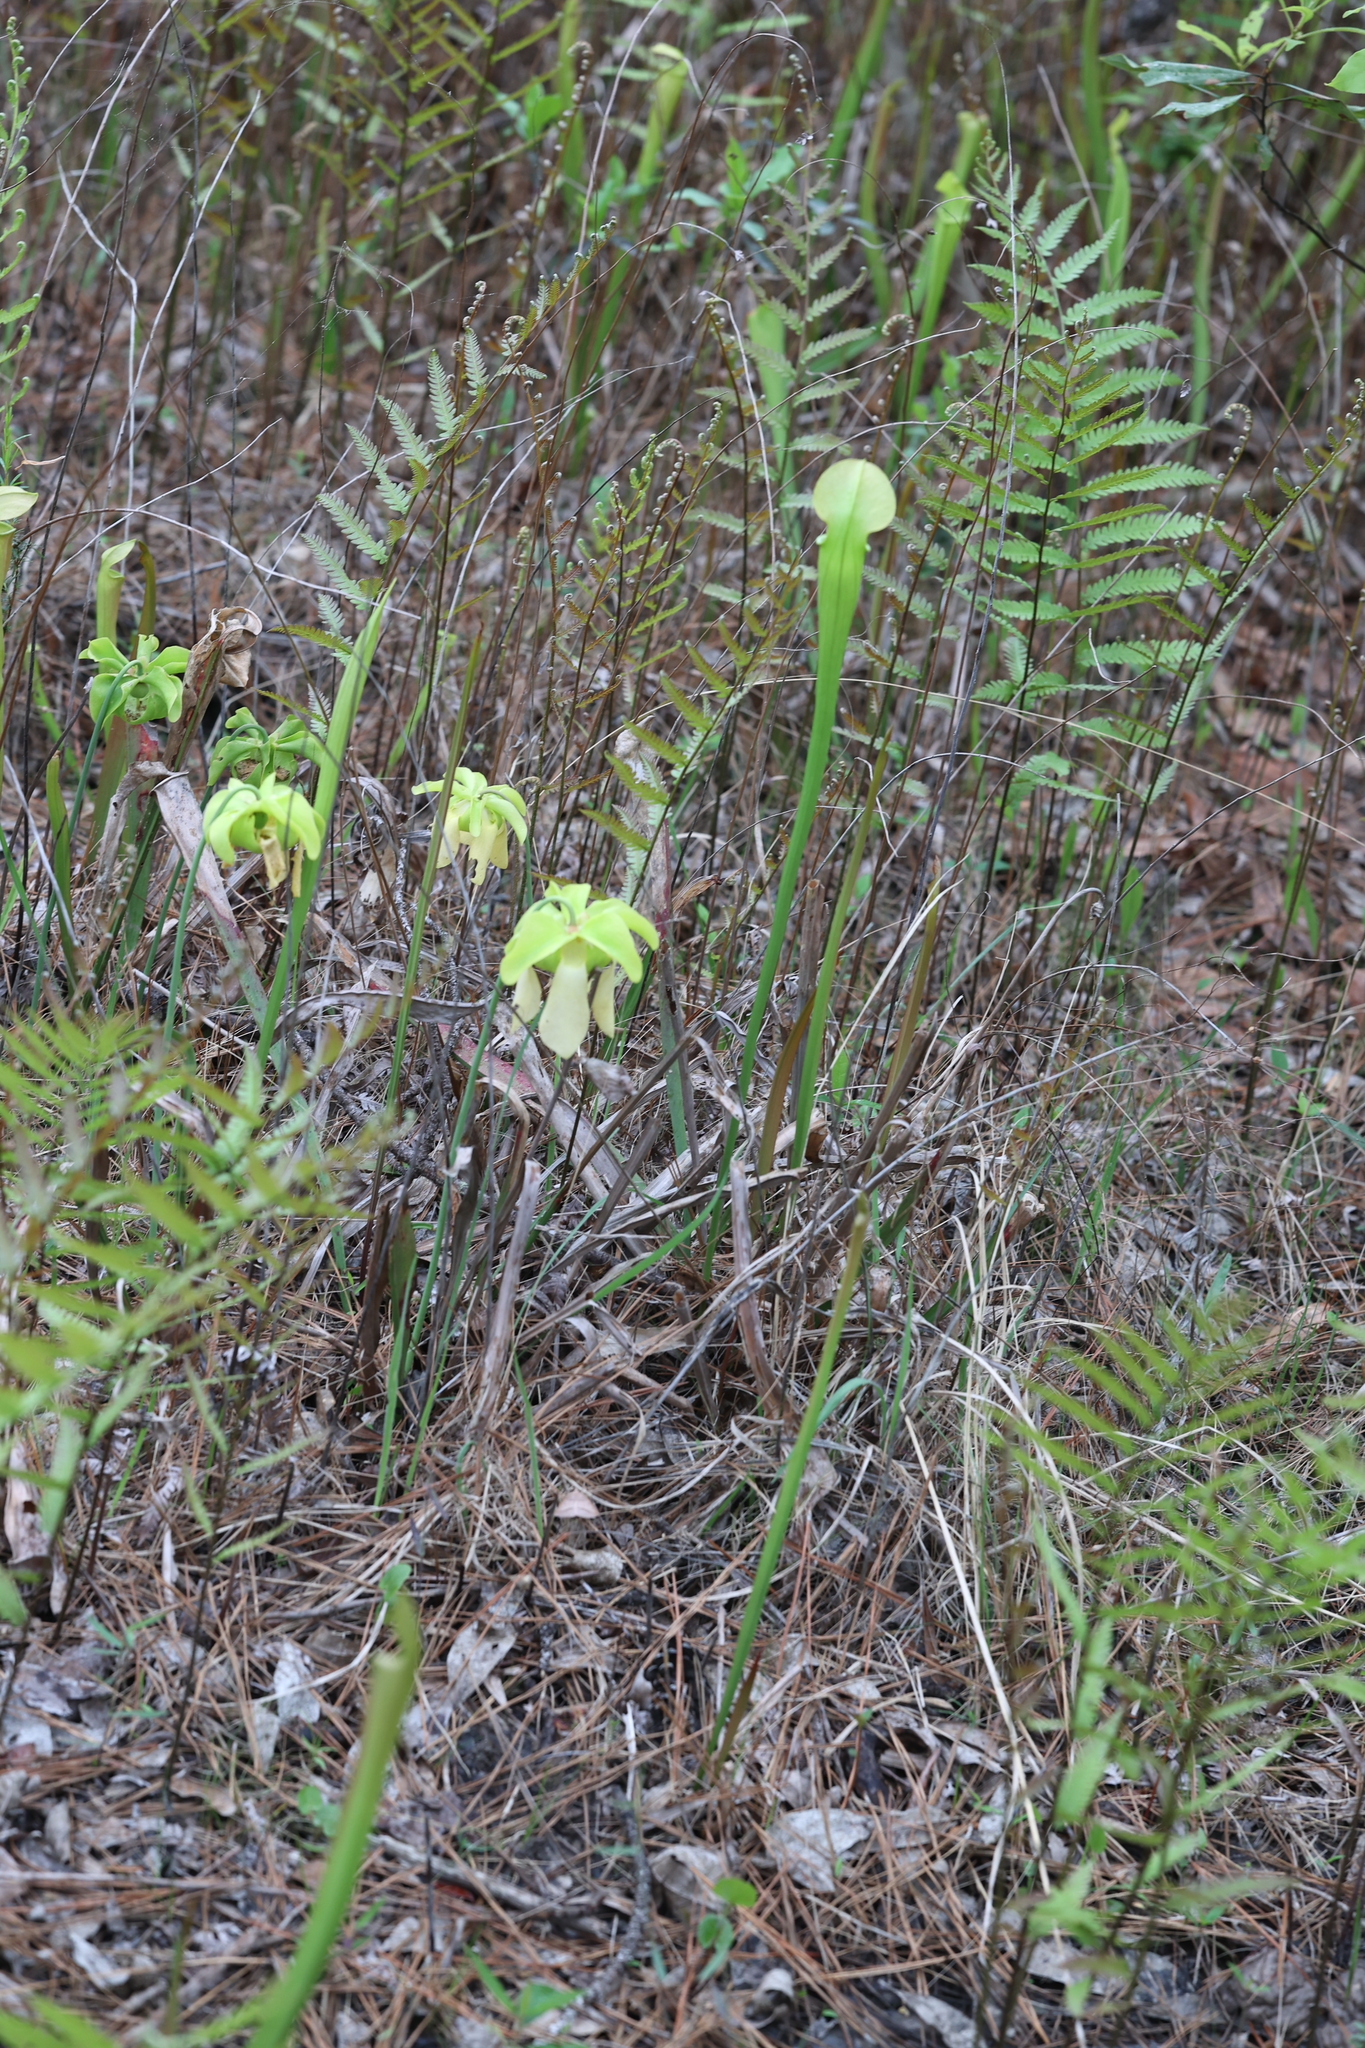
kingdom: Plantae
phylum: Tracheophyta
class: Magnoliopsida
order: Ericales
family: Sarraceniaceae
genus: Sarracenia
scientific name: Sarracenia alata
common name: Yellow trumpets
